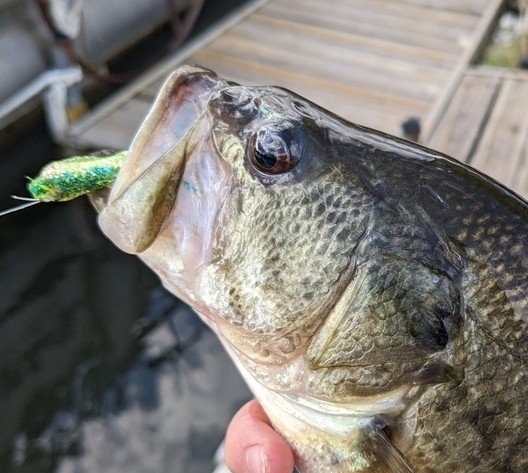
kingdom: Animalia
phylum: Chordata
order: Perciformes
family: Centrarchidae
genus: Micropterus
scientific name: Micropterus
